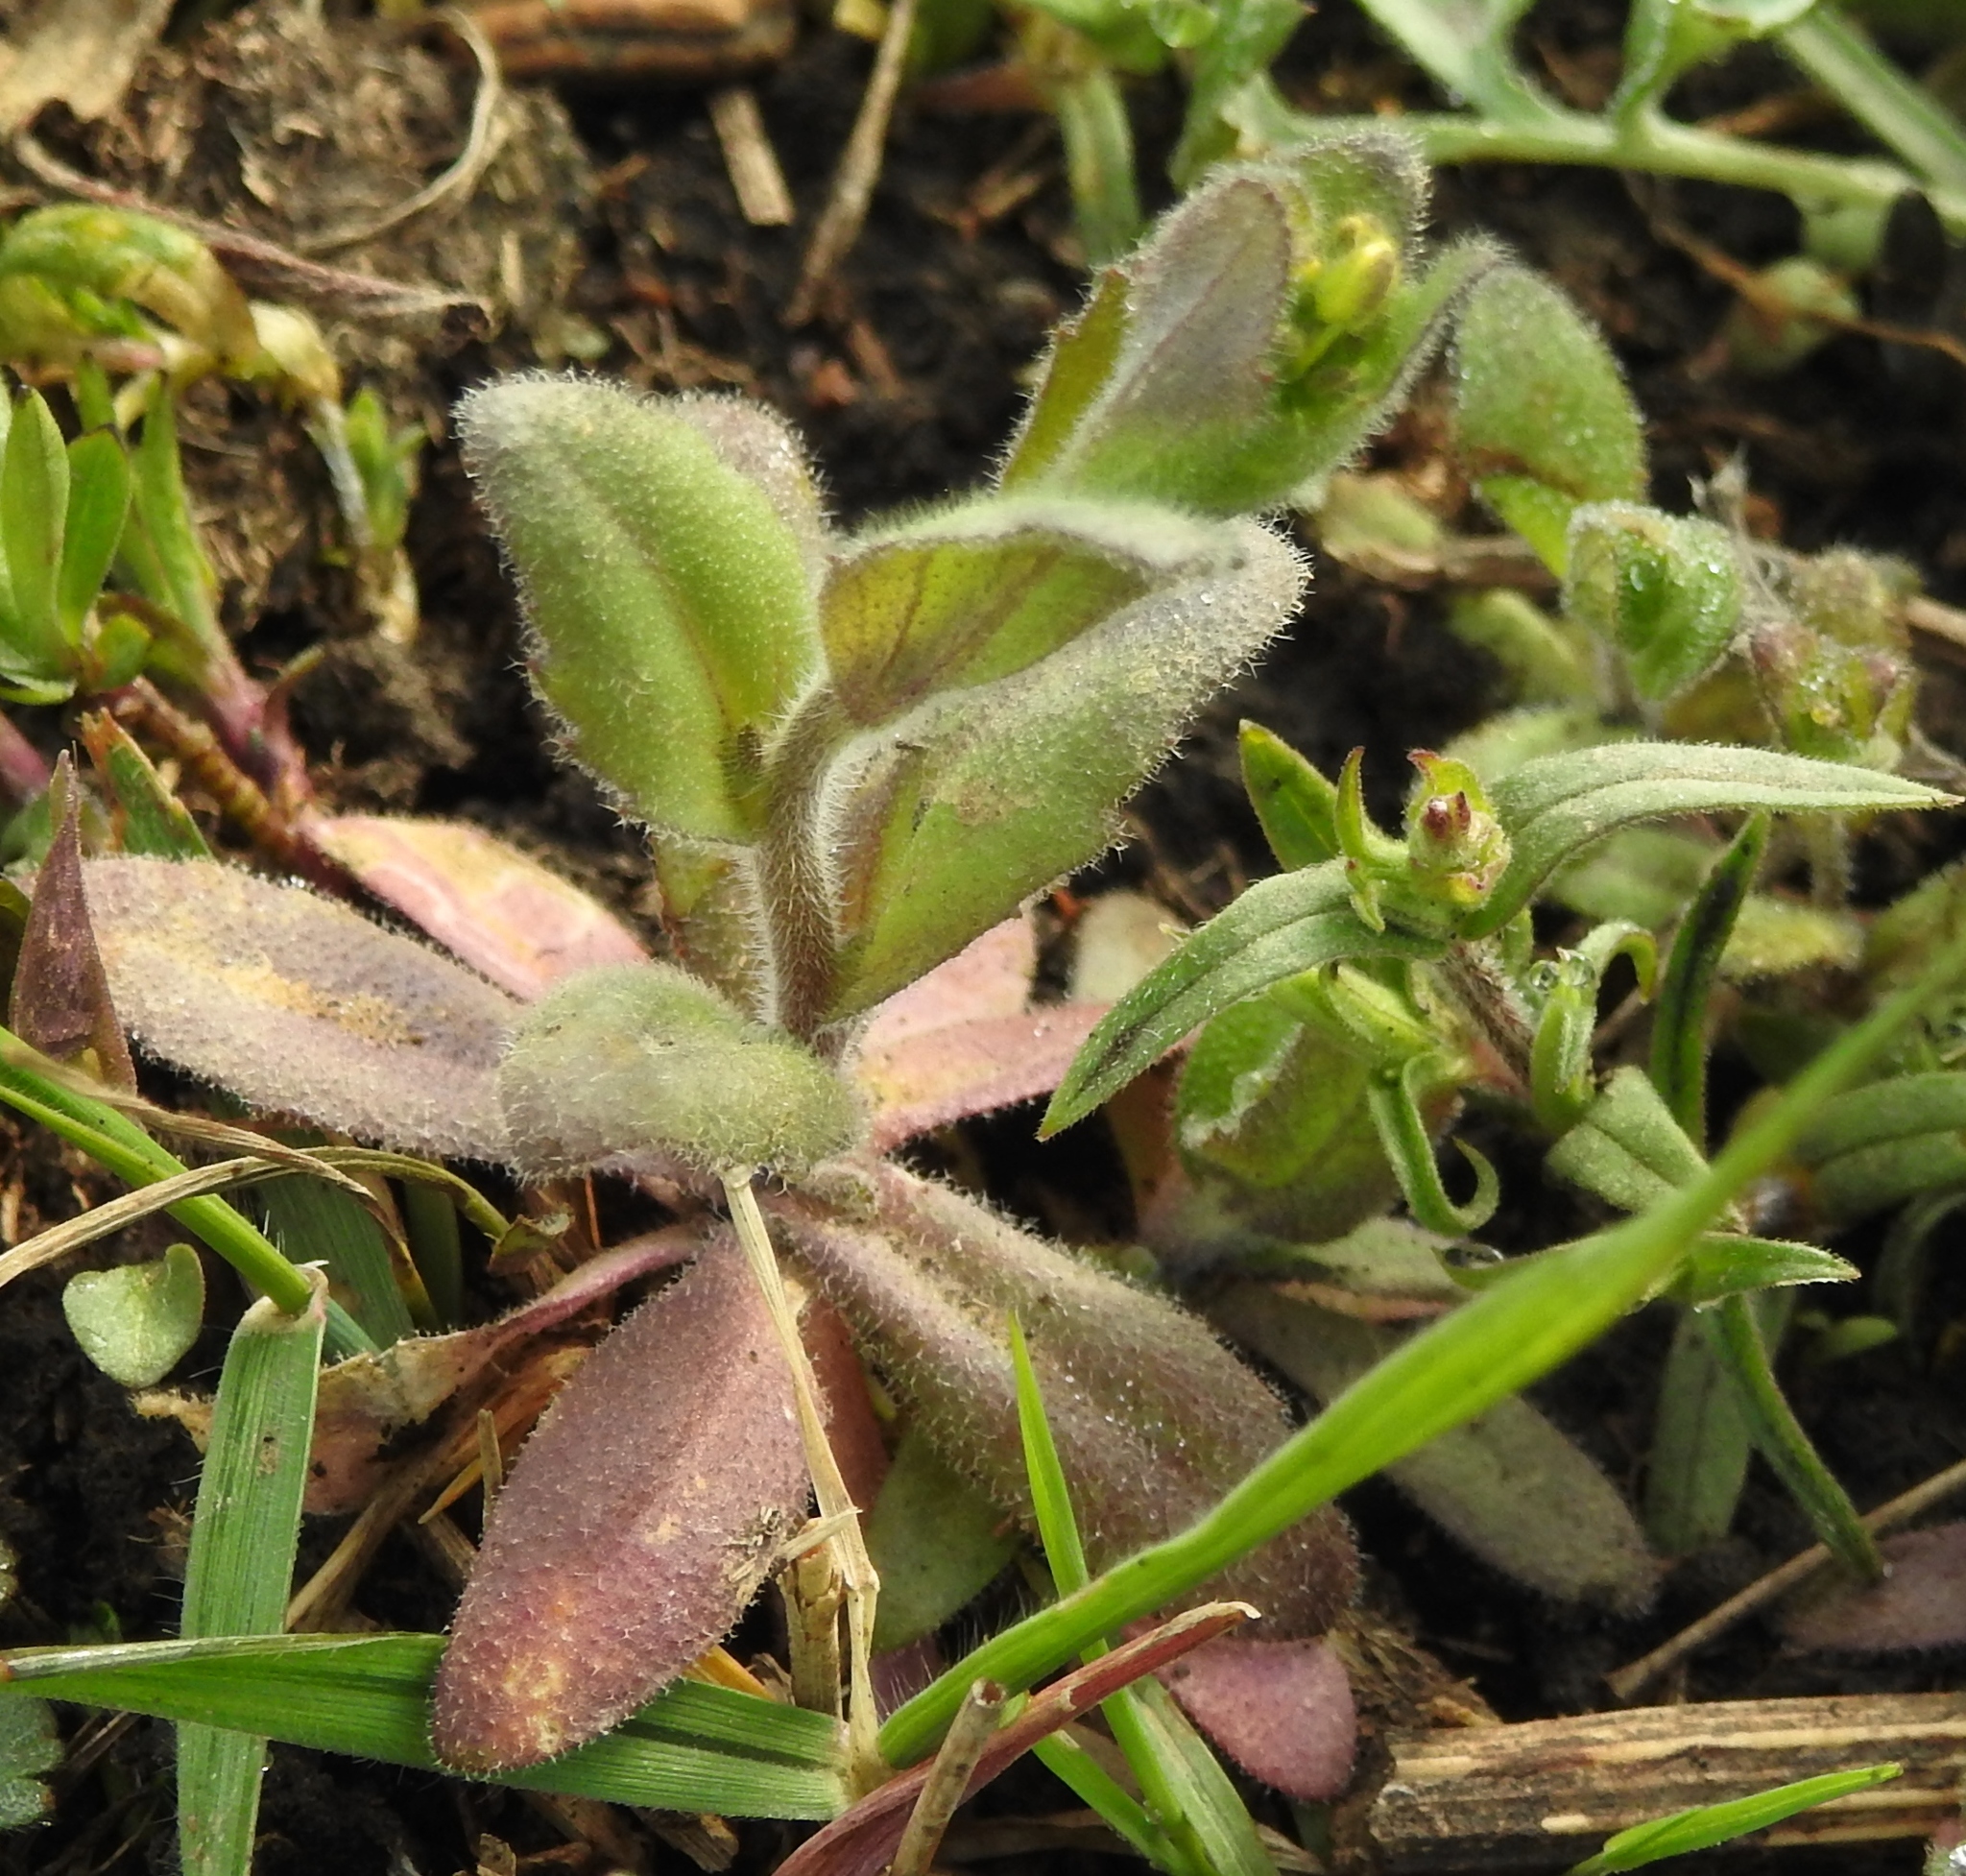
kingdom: Plantae
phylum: Tracheophyta
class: Magnoliopsida
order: Brassicales
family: Brassicaceae
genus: Draba
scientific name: Draba nemorosa
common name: Wood whitlow-grass
